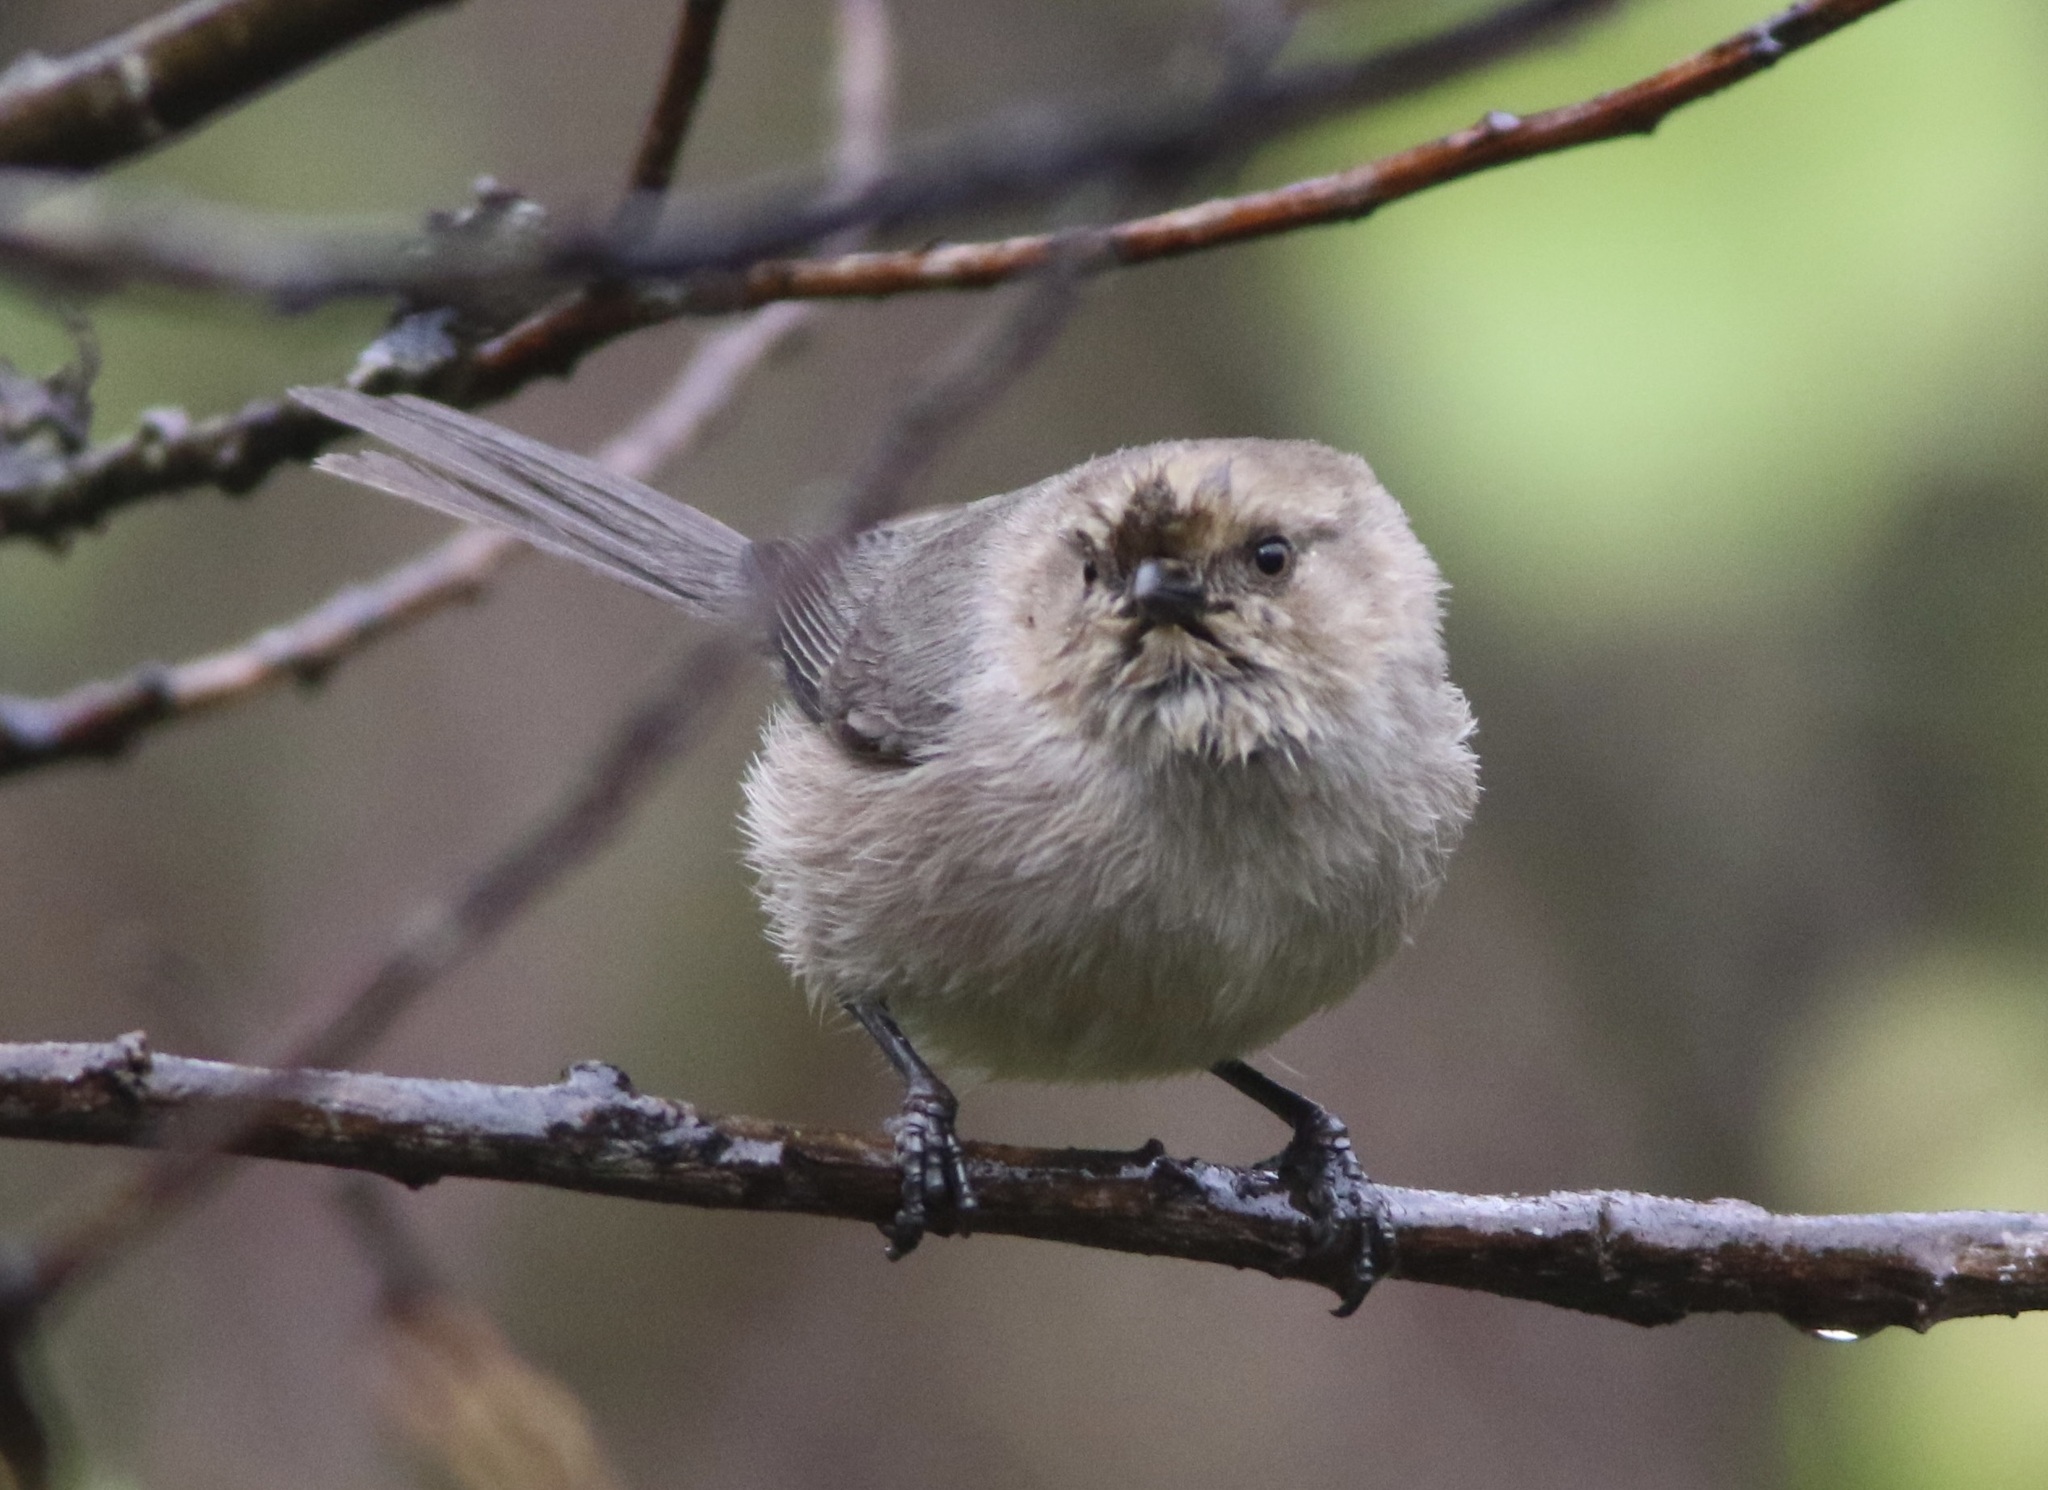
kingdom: Animalia
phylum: Chordata
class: Aves
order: Passeriformes
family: Aegithalidae
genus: Psaltriparus
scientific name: Psaltriparus minimus
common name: American bushtit
